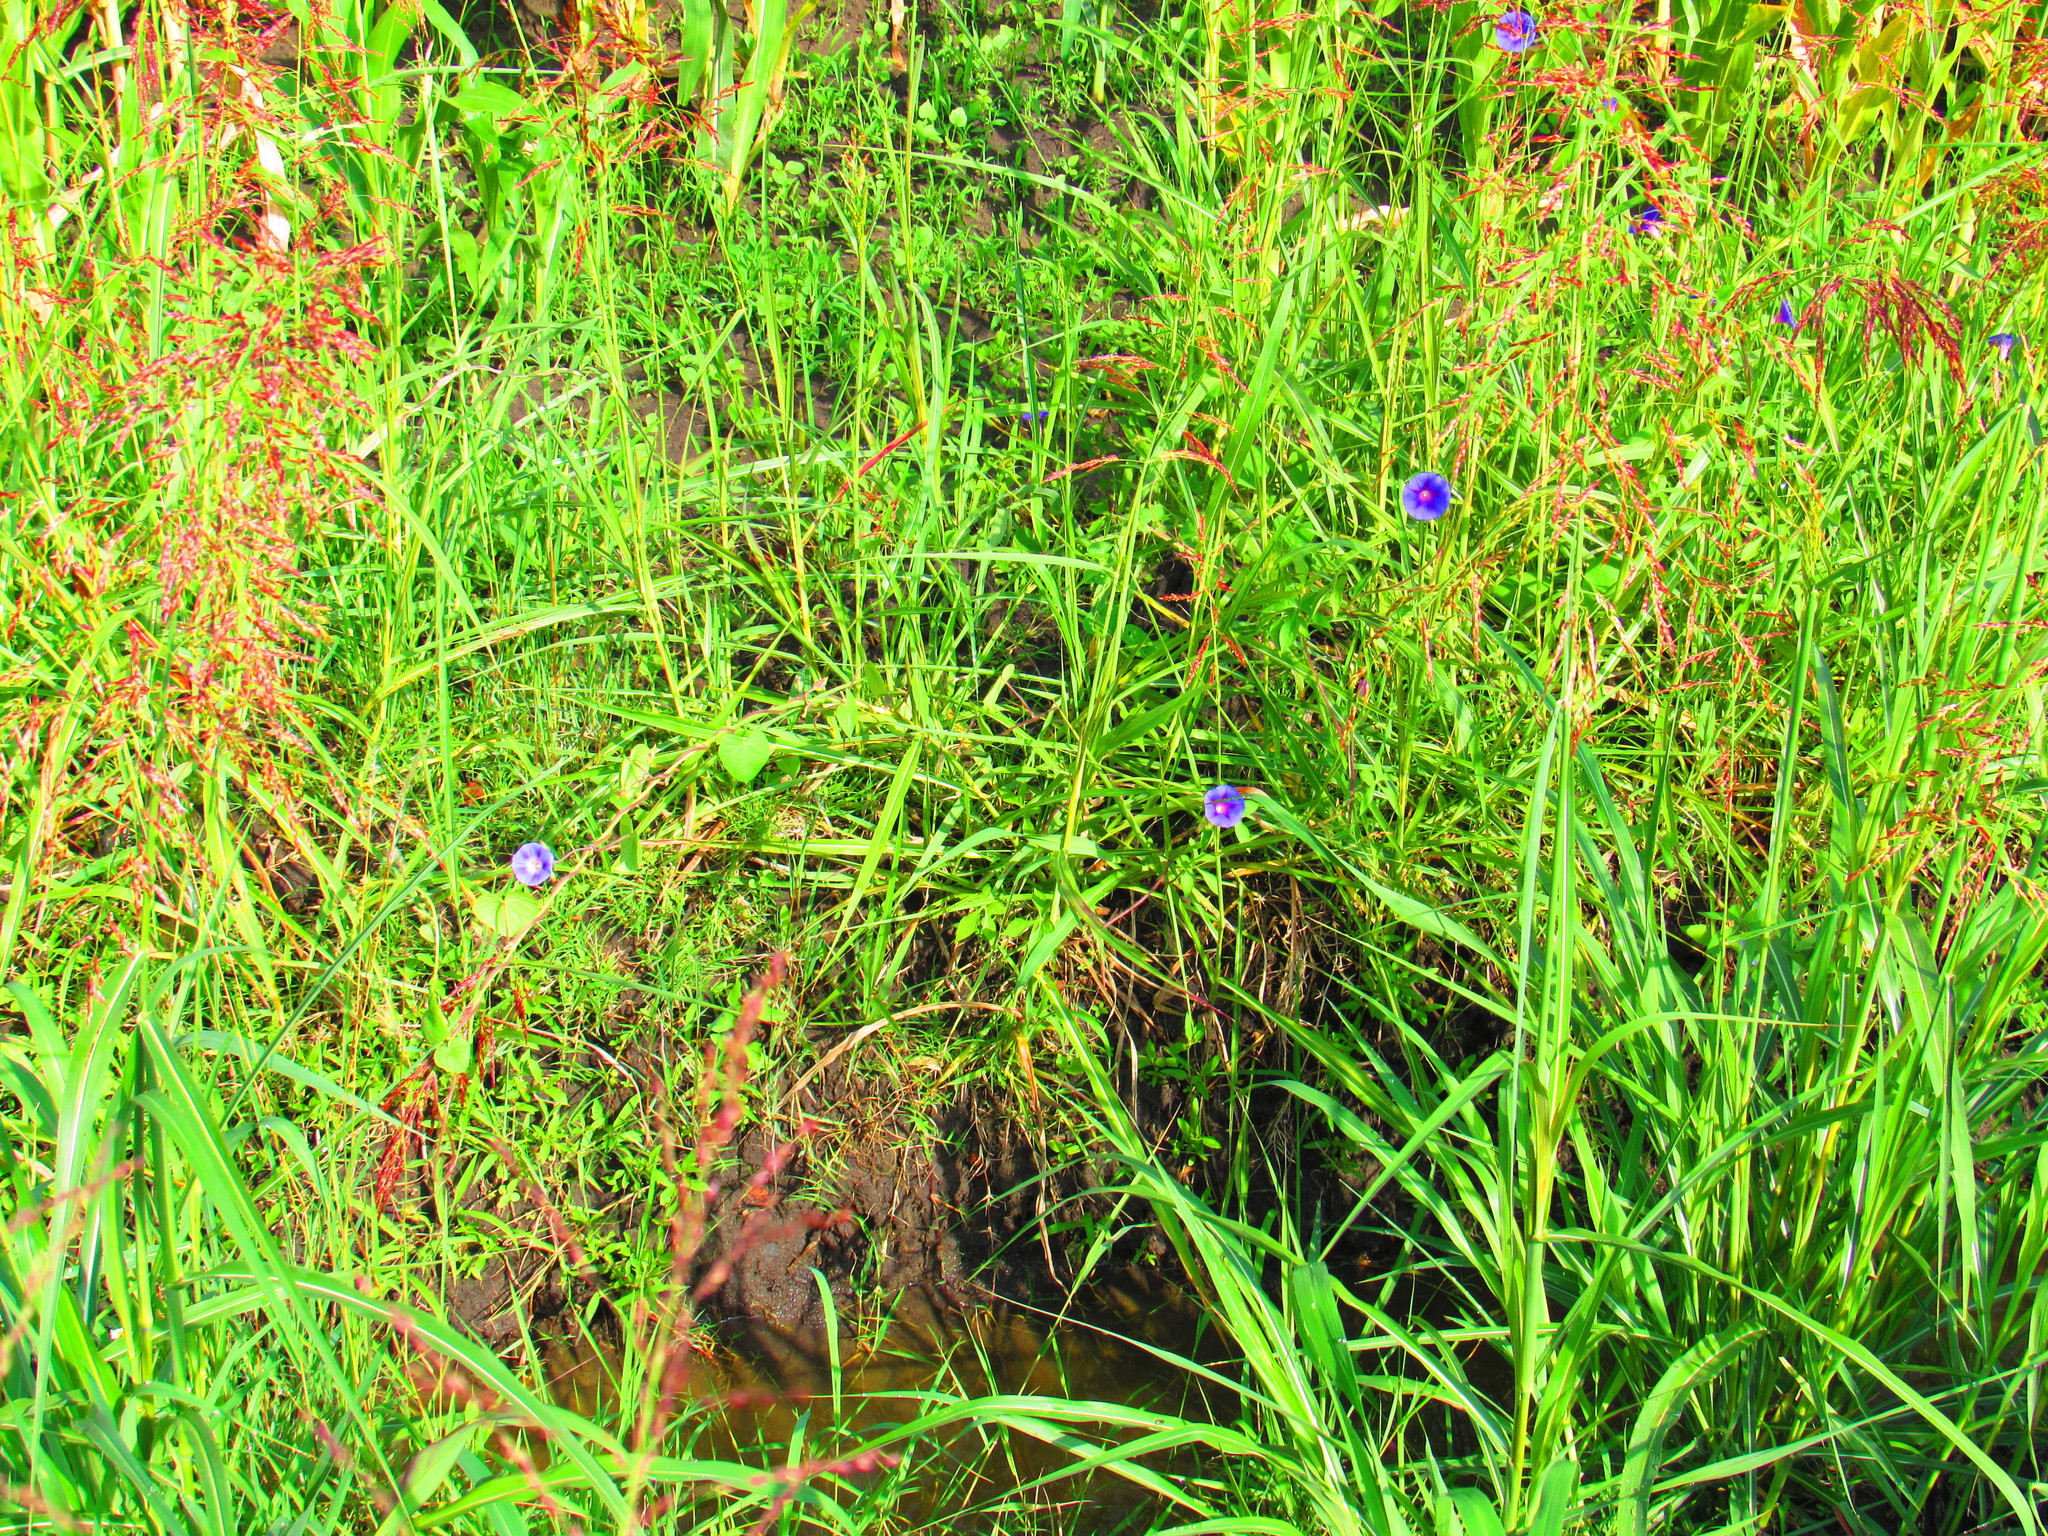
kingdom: Plantae
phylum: Tracheophyta
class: Magnoliopsida
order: Solanales
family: Convolvulaceae
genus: Ipomoea
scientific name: Ipomoea purpurea
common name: Common morning-glory
